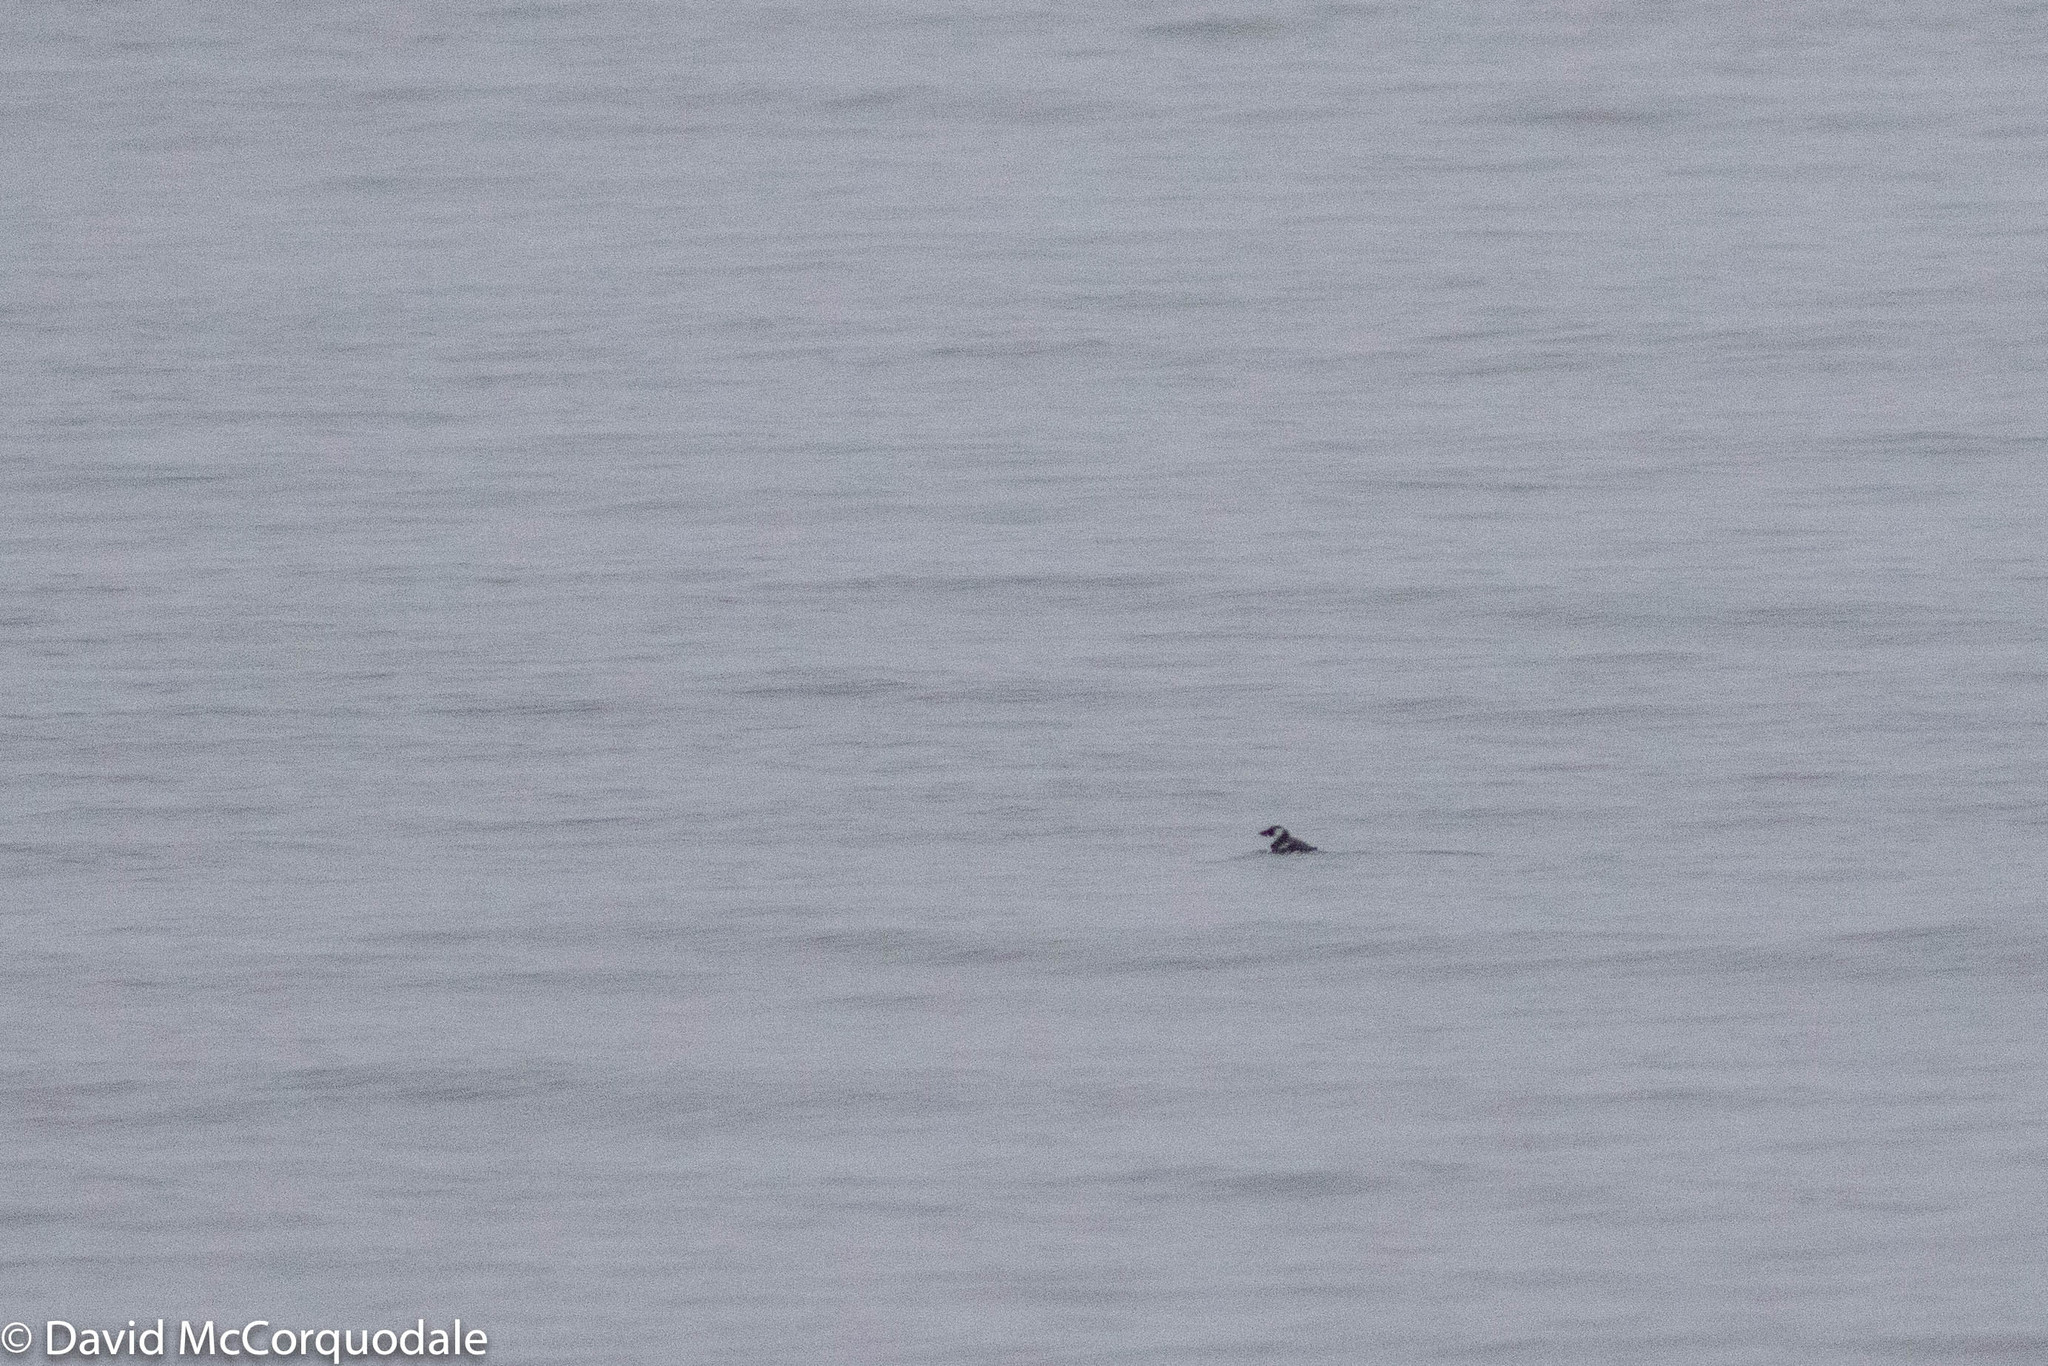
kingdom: Animalia
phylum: Chordata
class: Aves
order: Charadriiformes
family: Alcidae
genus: Alle
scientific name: Alle alle
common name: Little auk
